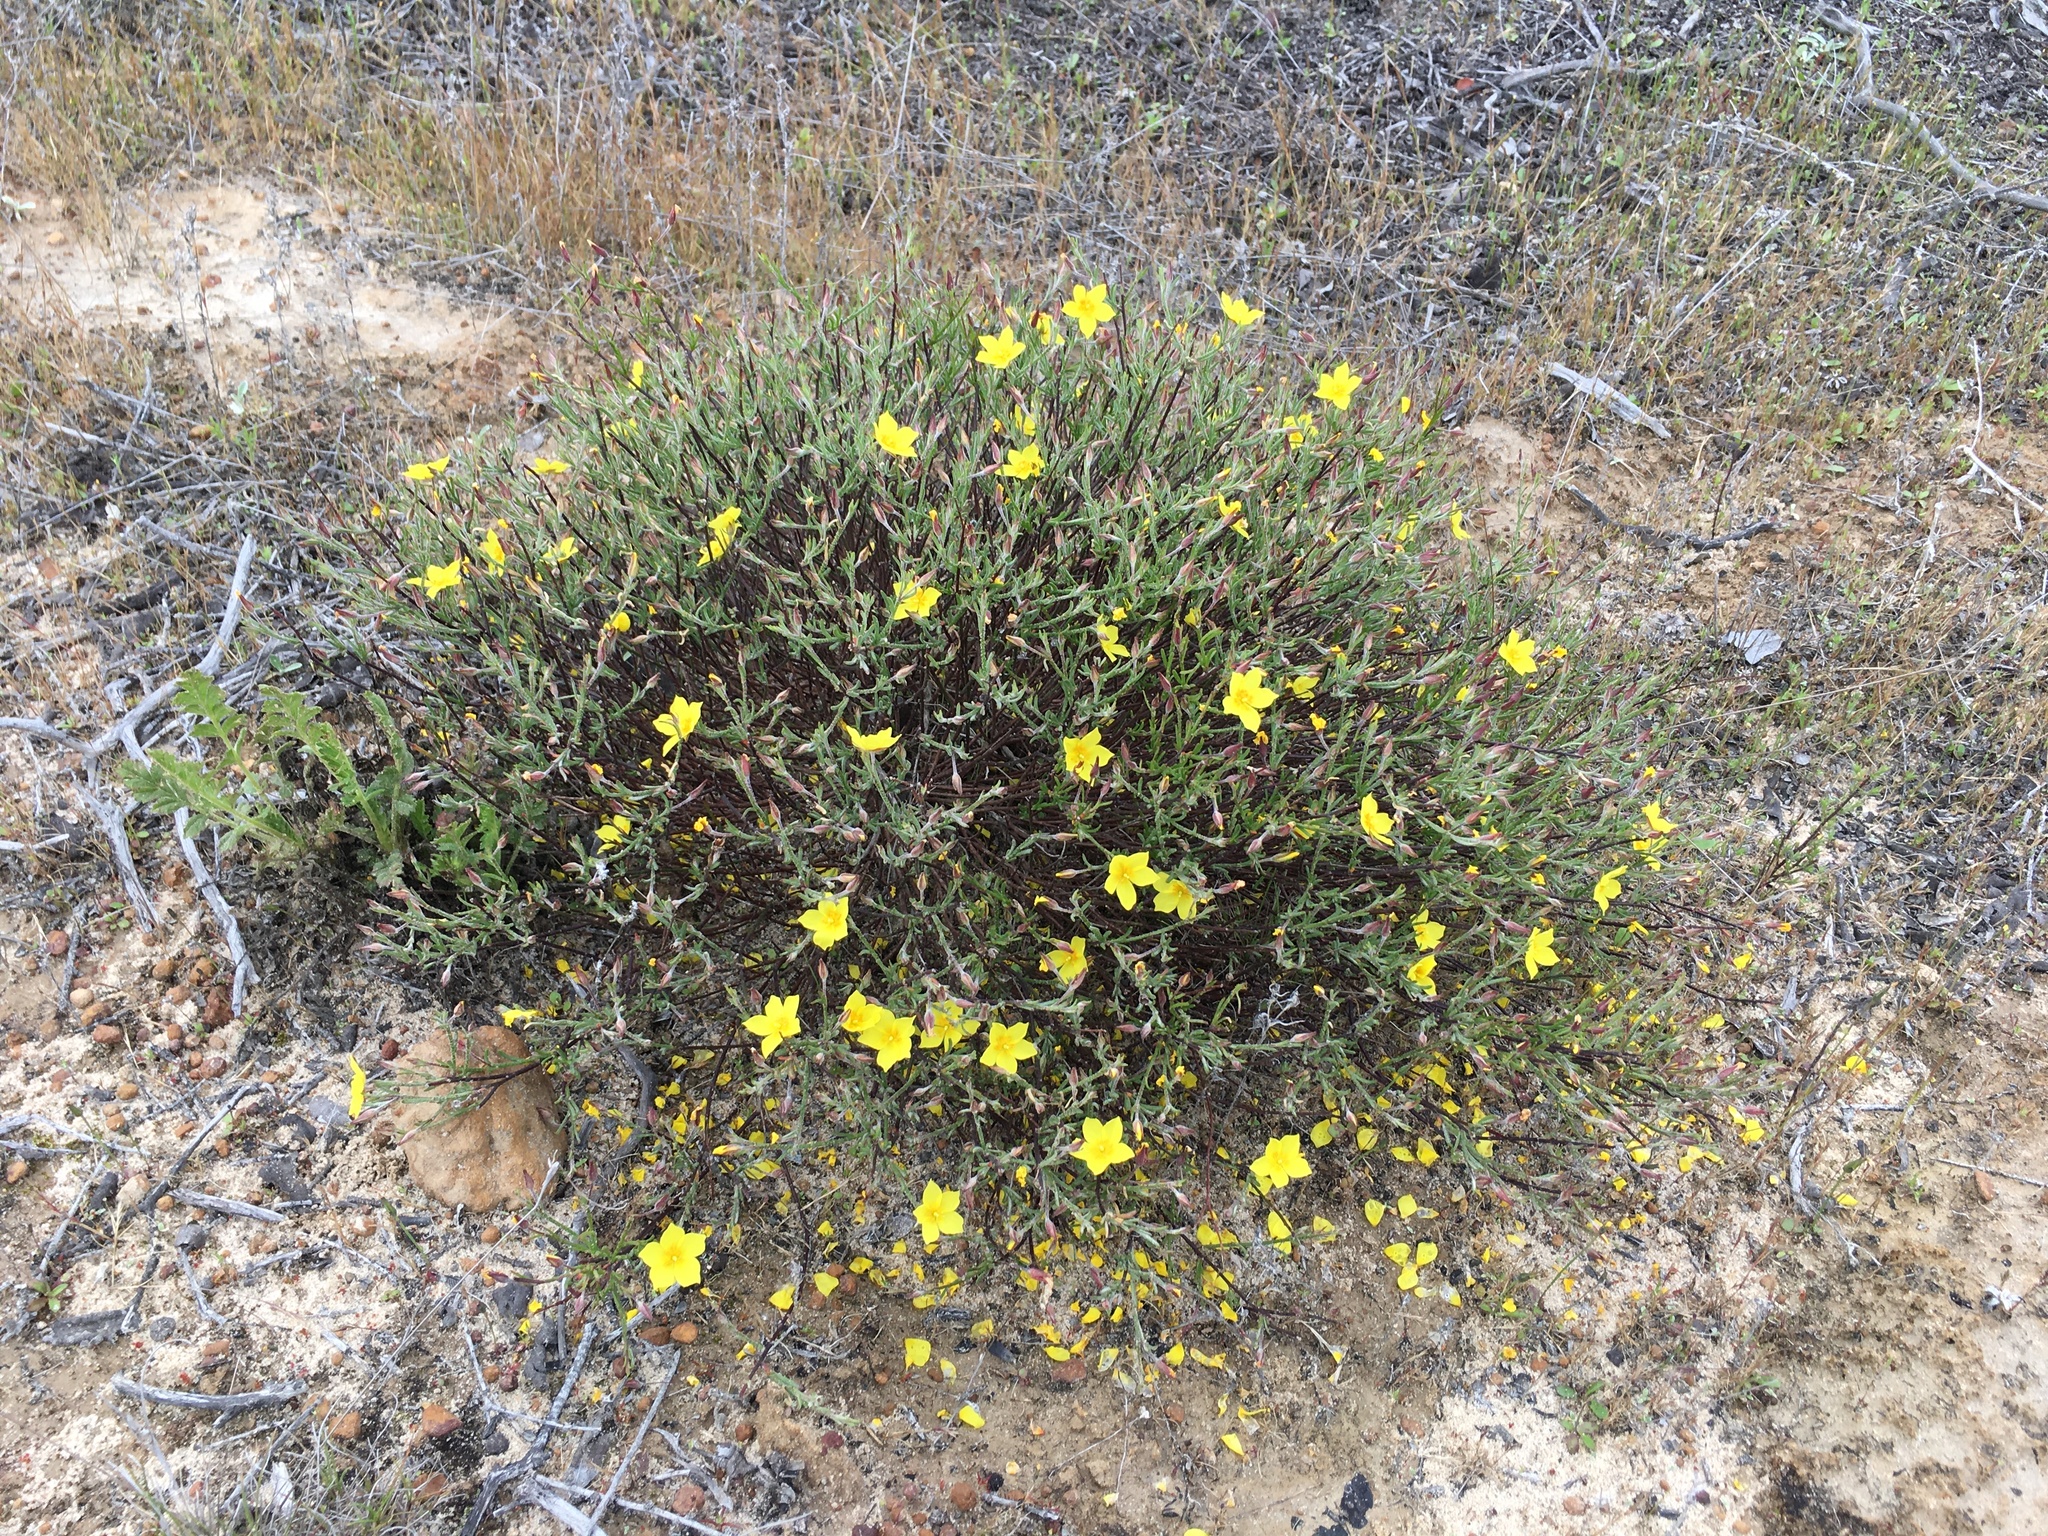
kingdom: Plantae
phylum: Tracheophyta
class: Magnoliopsida
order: Malvales
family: Cistaceae
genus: Crocanthemum
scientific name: Crocanthemum scoparium
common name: Broom-rose
